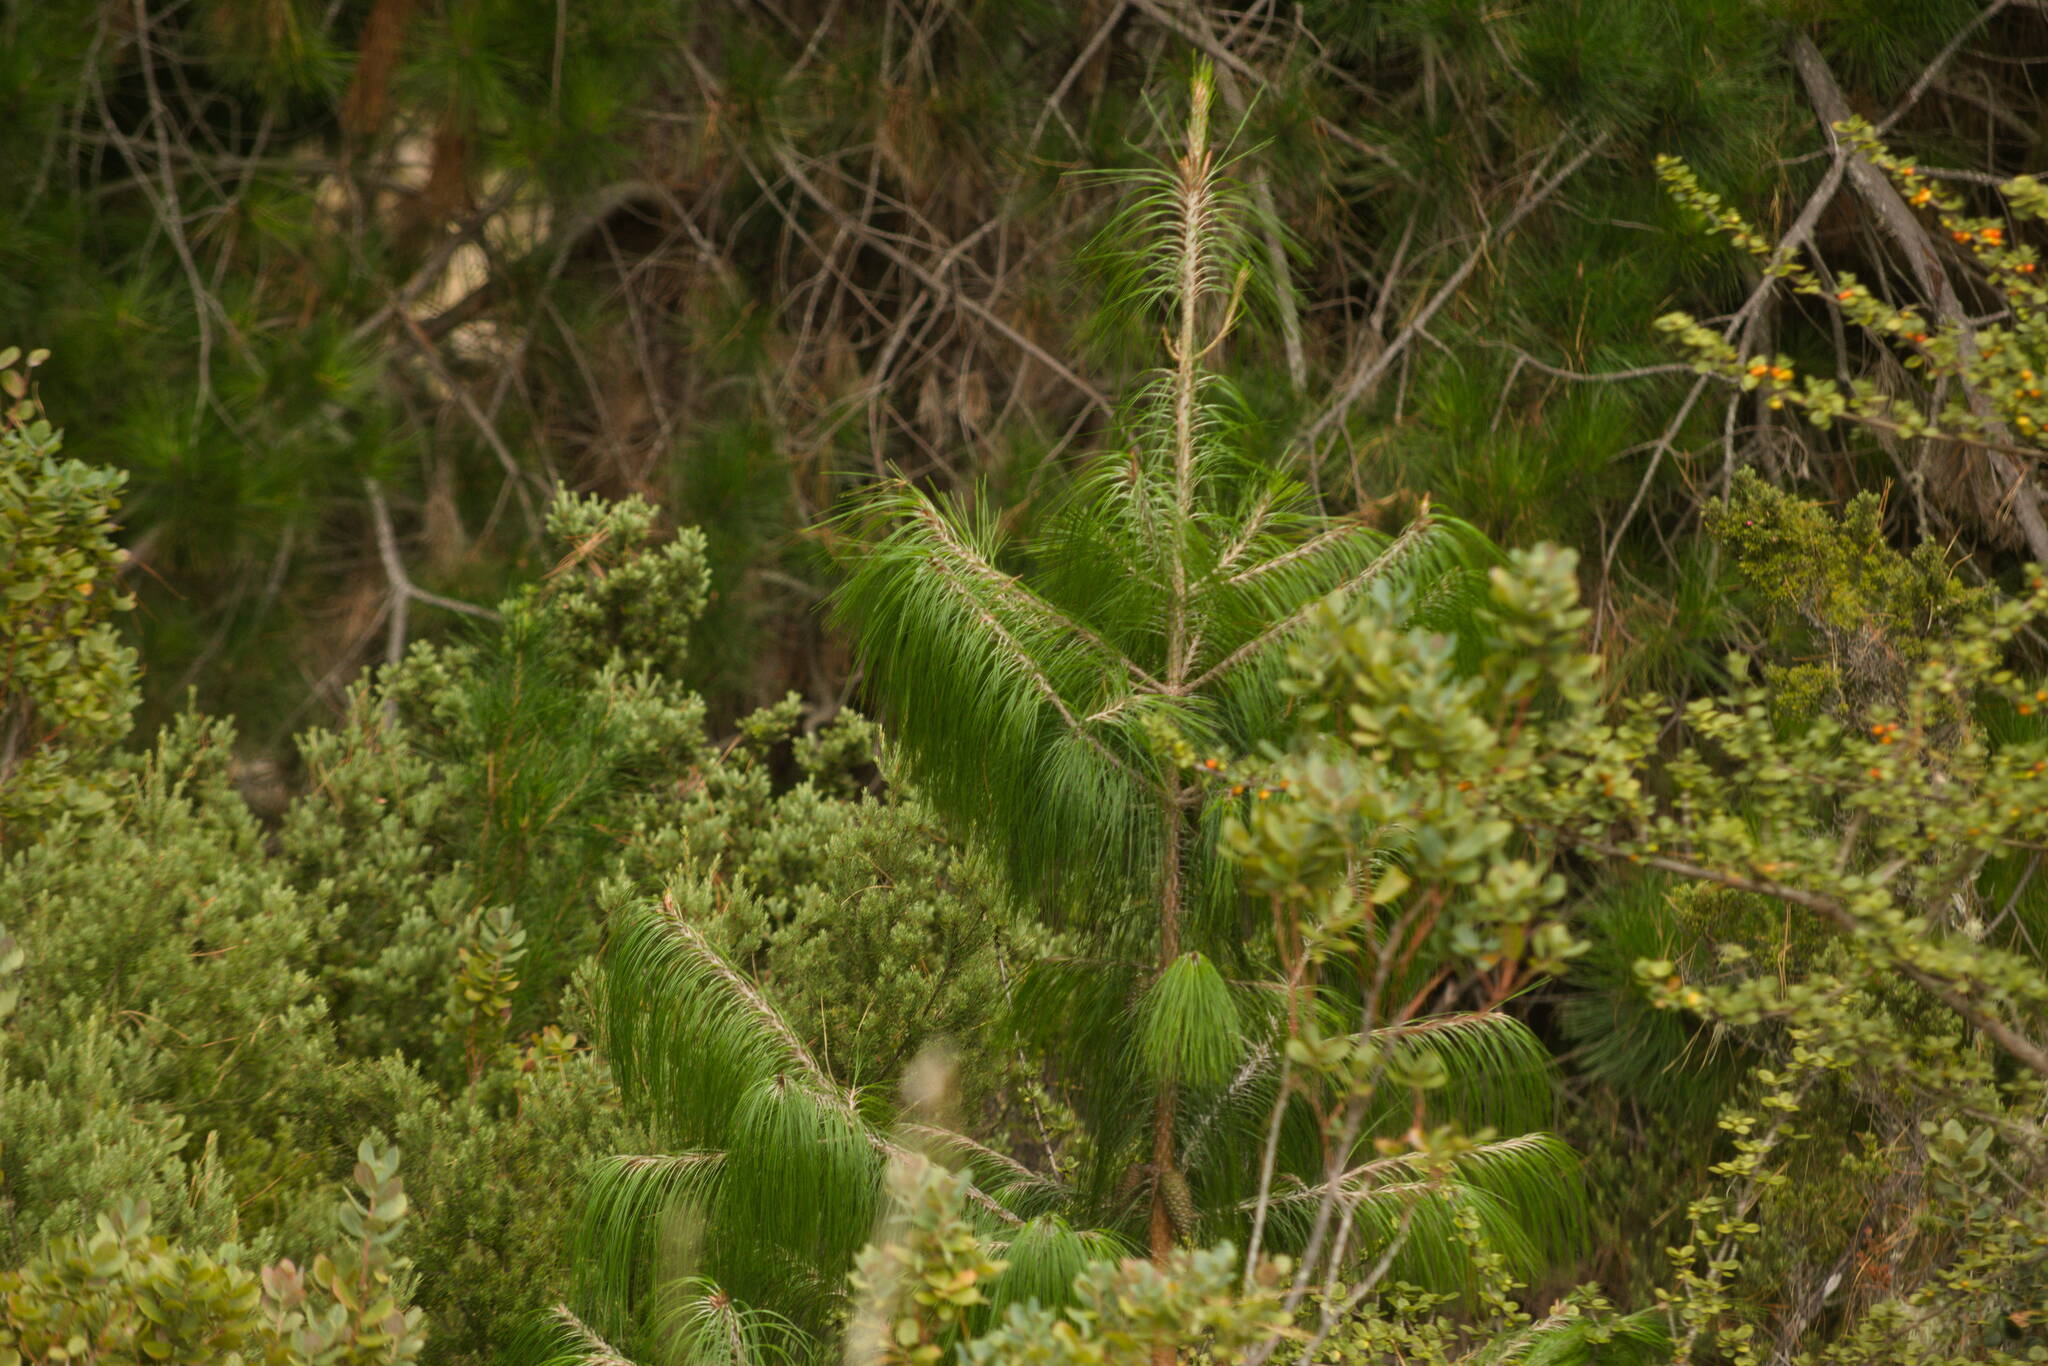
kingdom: Plantae
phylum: Tracheophyta
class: Pinopsida
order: Pinales
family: Pinaceae
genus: Pinus
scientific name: Pinus patula
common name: Mexican weeping pine
